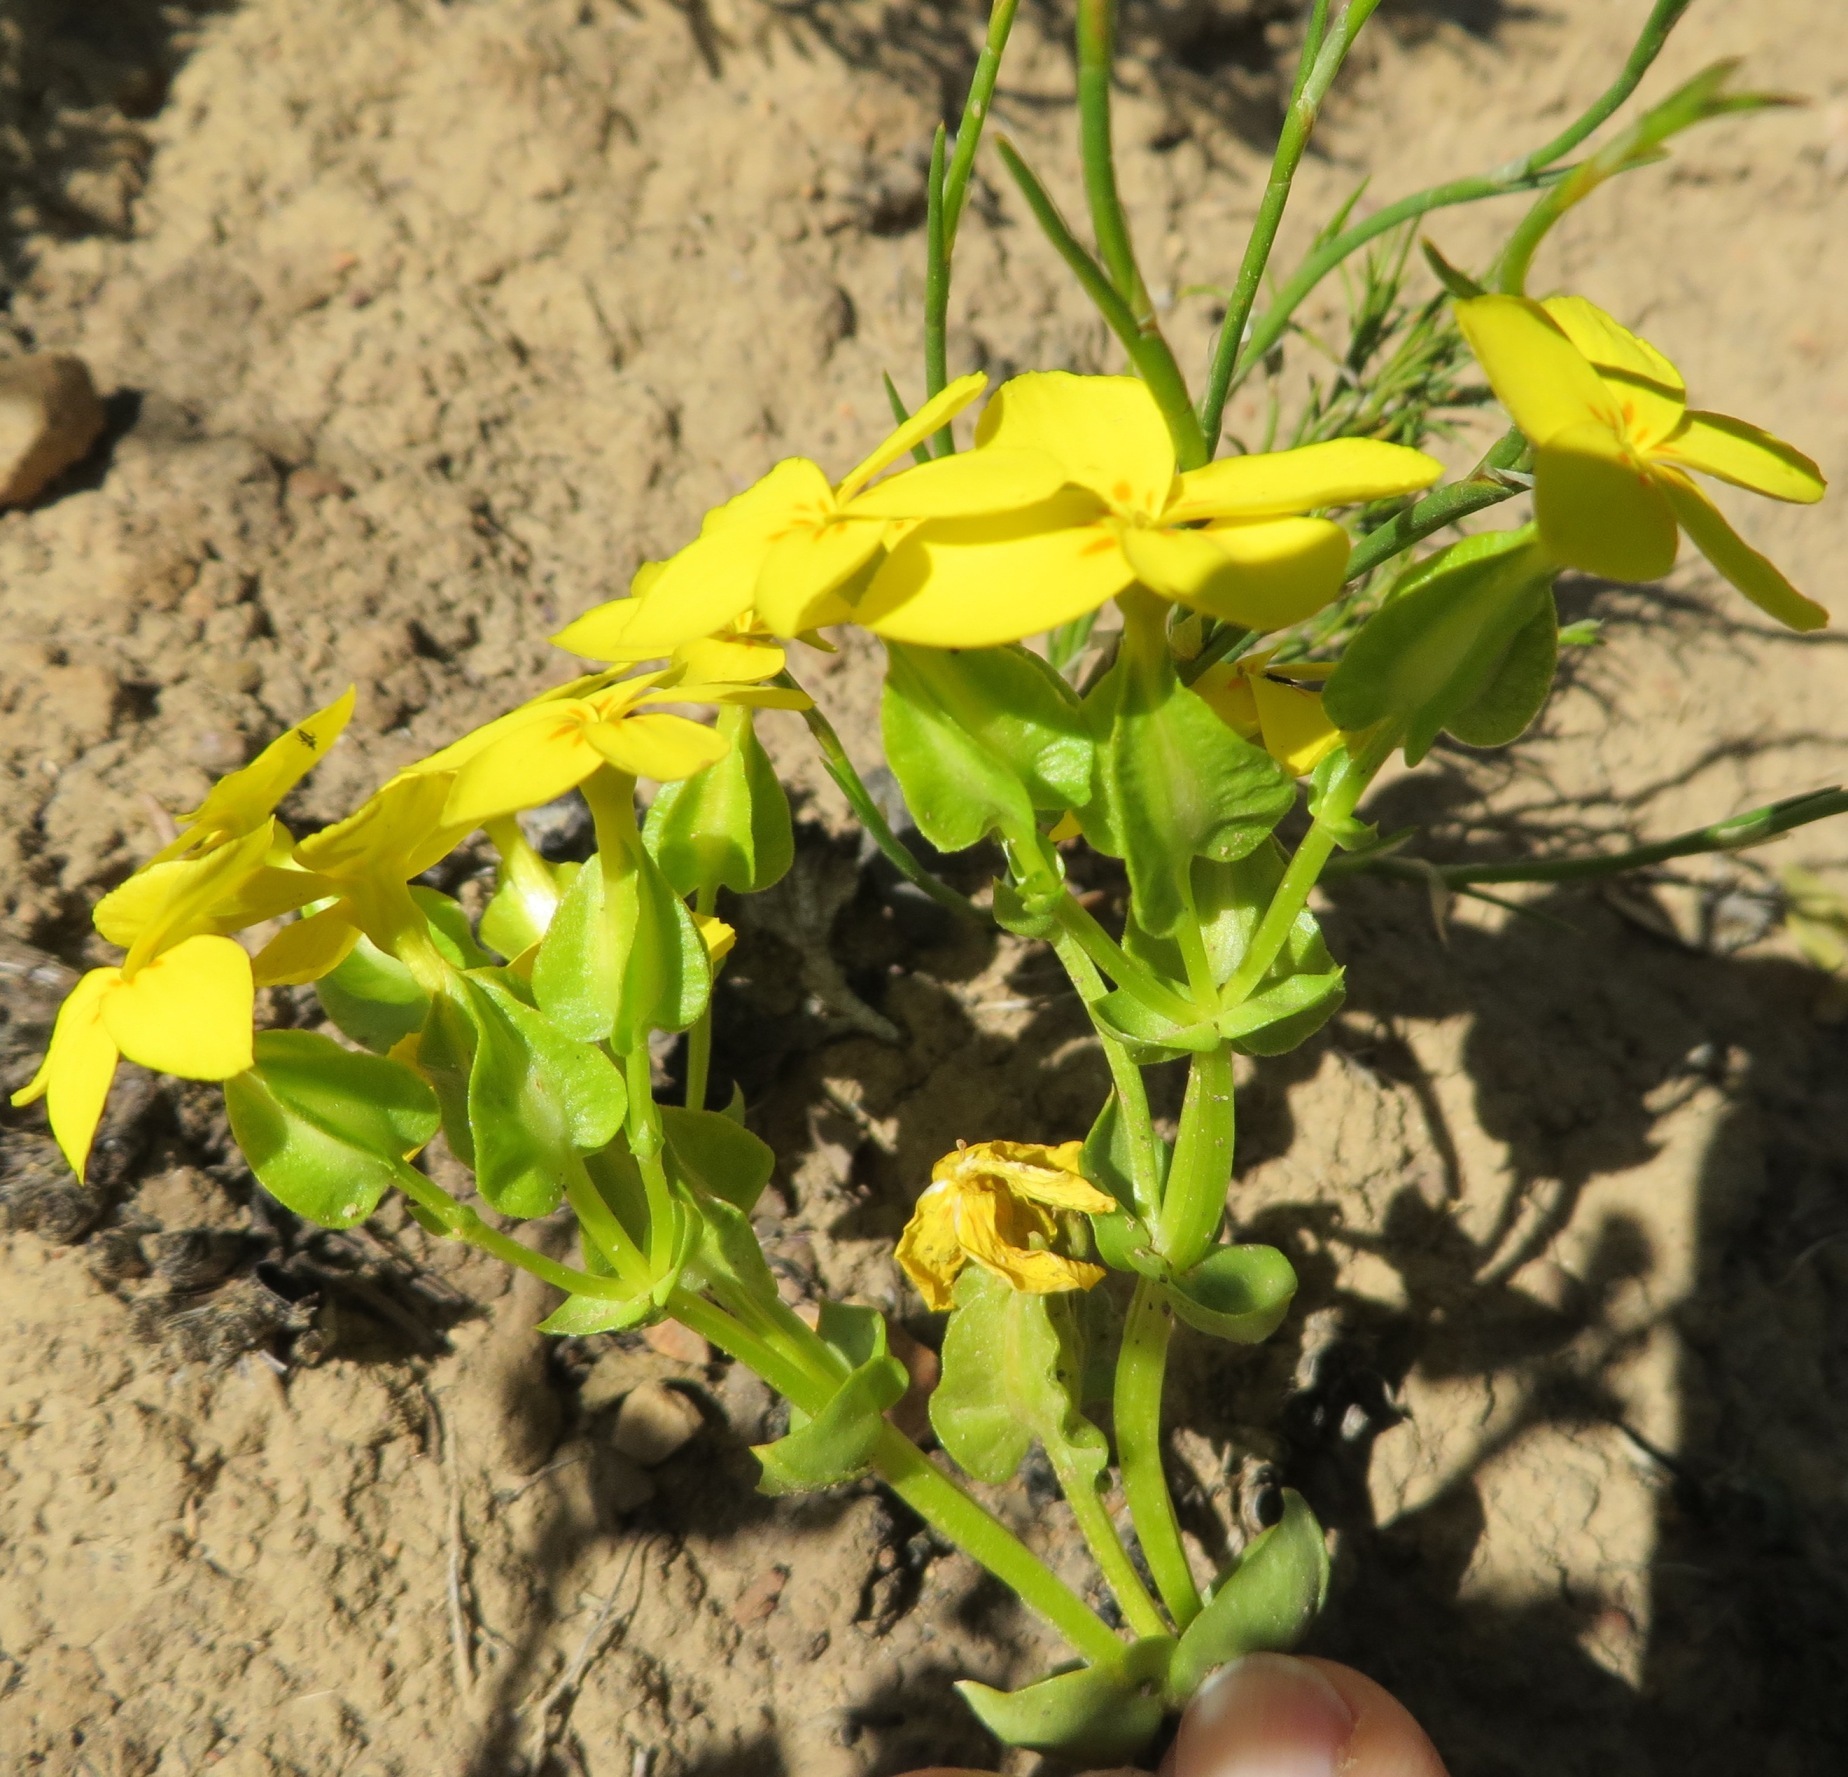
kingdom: Plantae
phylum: Tracheophyta
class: Magnoliopsida
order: Gentianales
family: Gentianaceae
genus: Sebaea
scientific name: Sebaea exacoides
